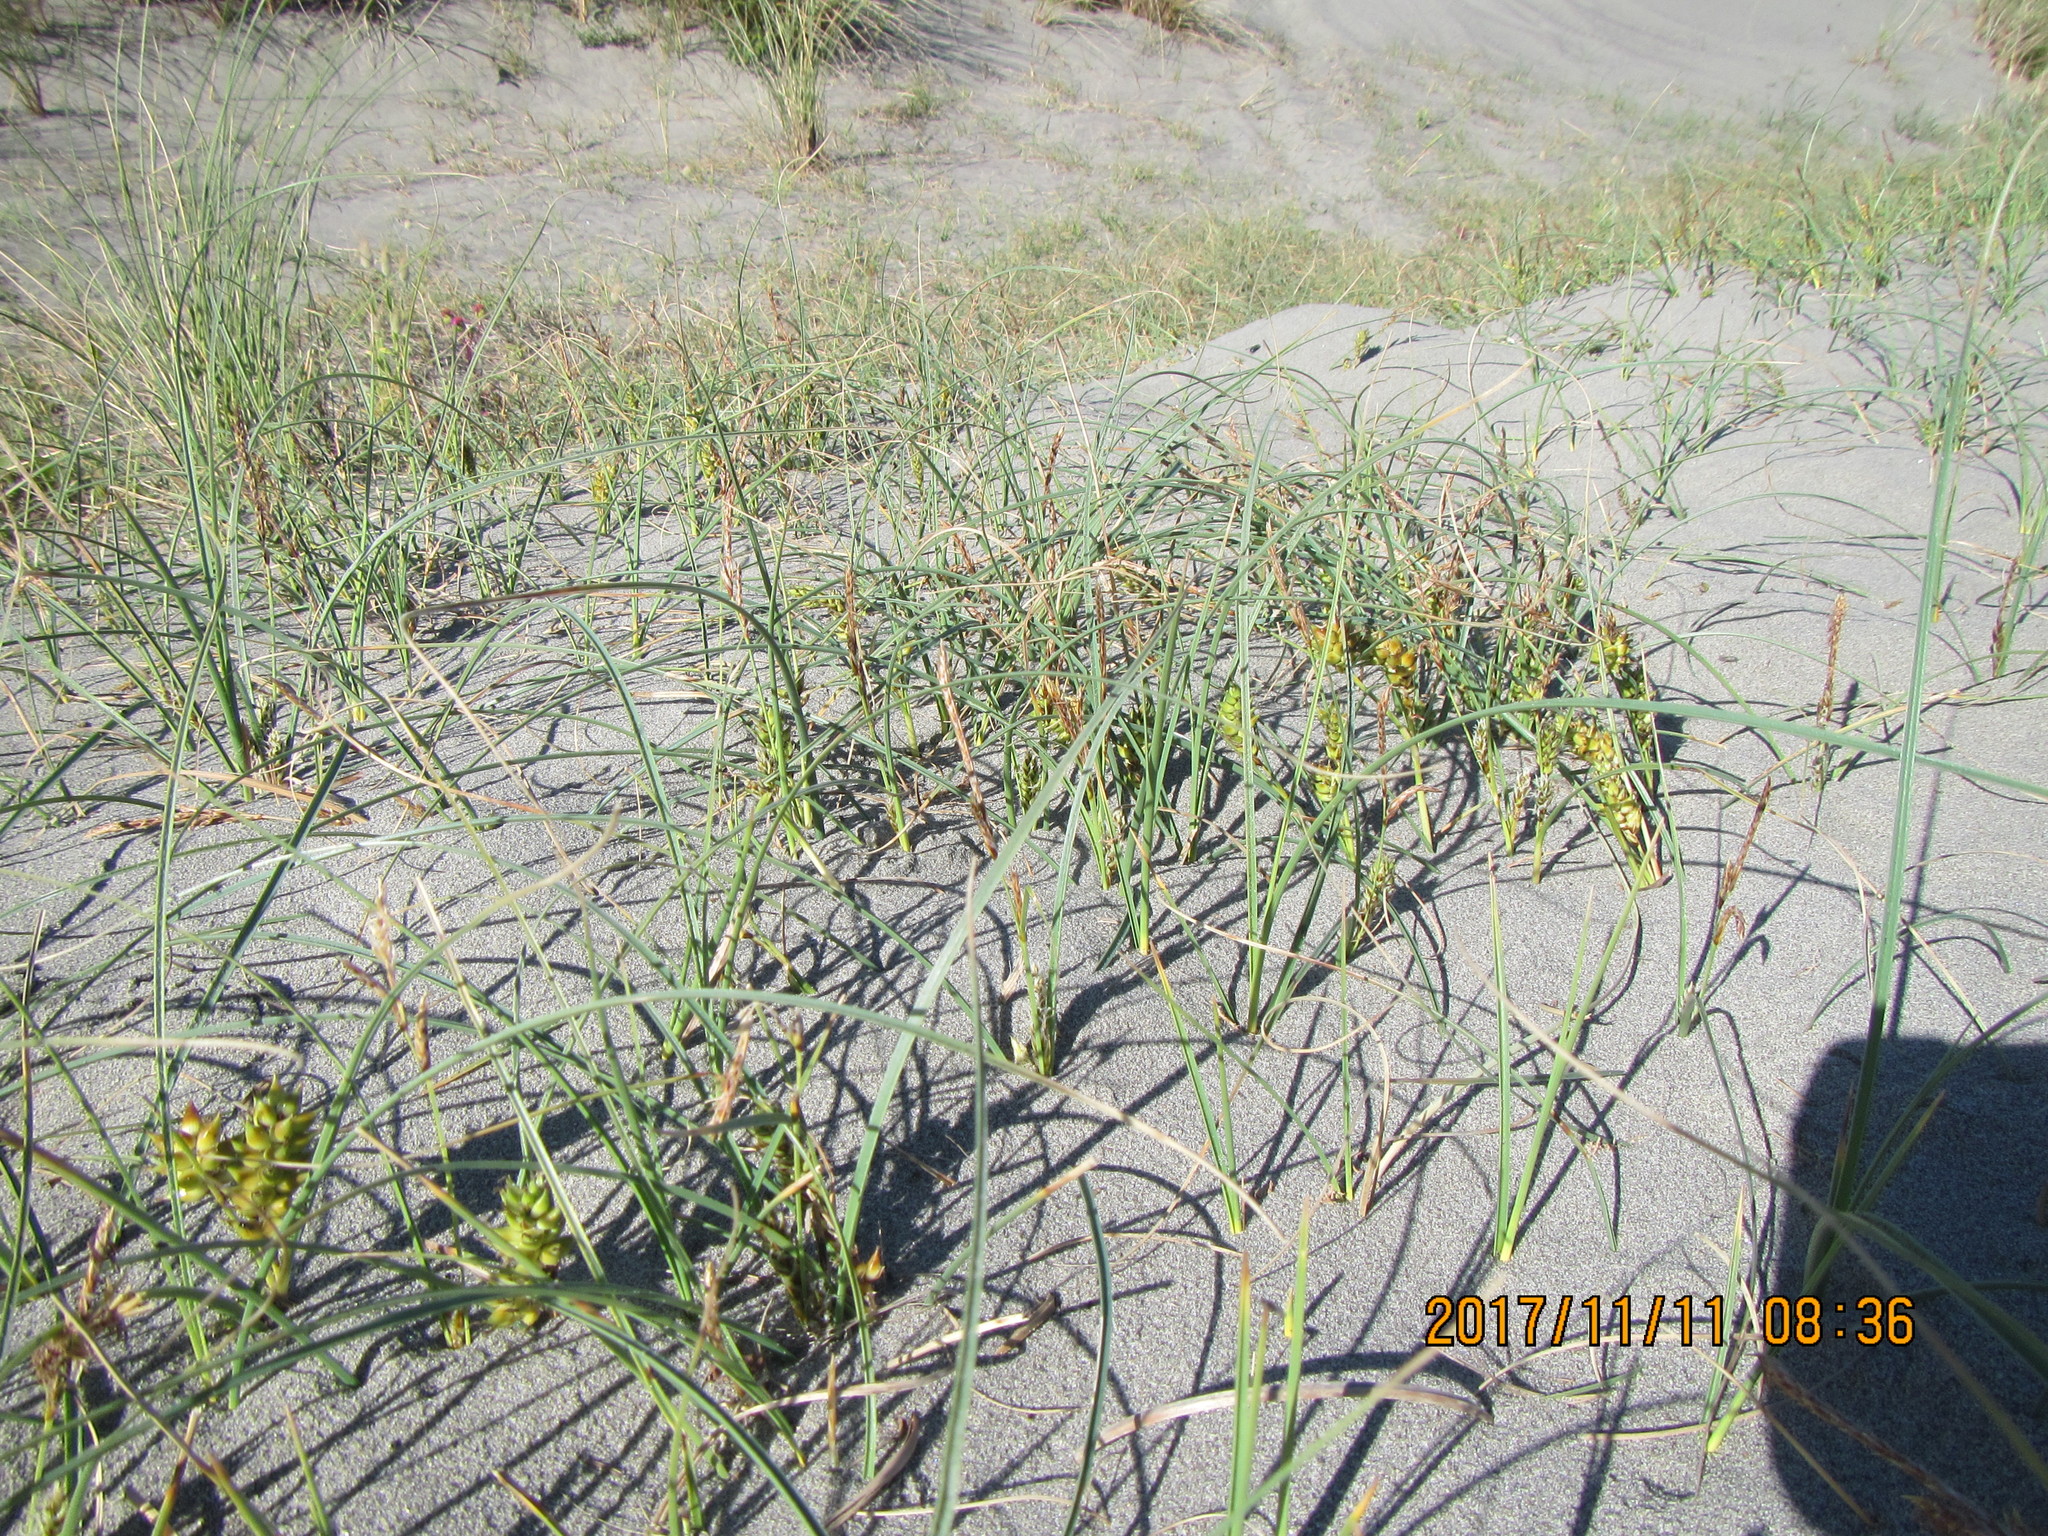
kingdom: Plantae
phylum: Tracheophyta
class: Liliopsida
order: Poales
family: Cyperaceae
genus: Carex
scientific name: Carex pumila
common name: Dwarf sedge
